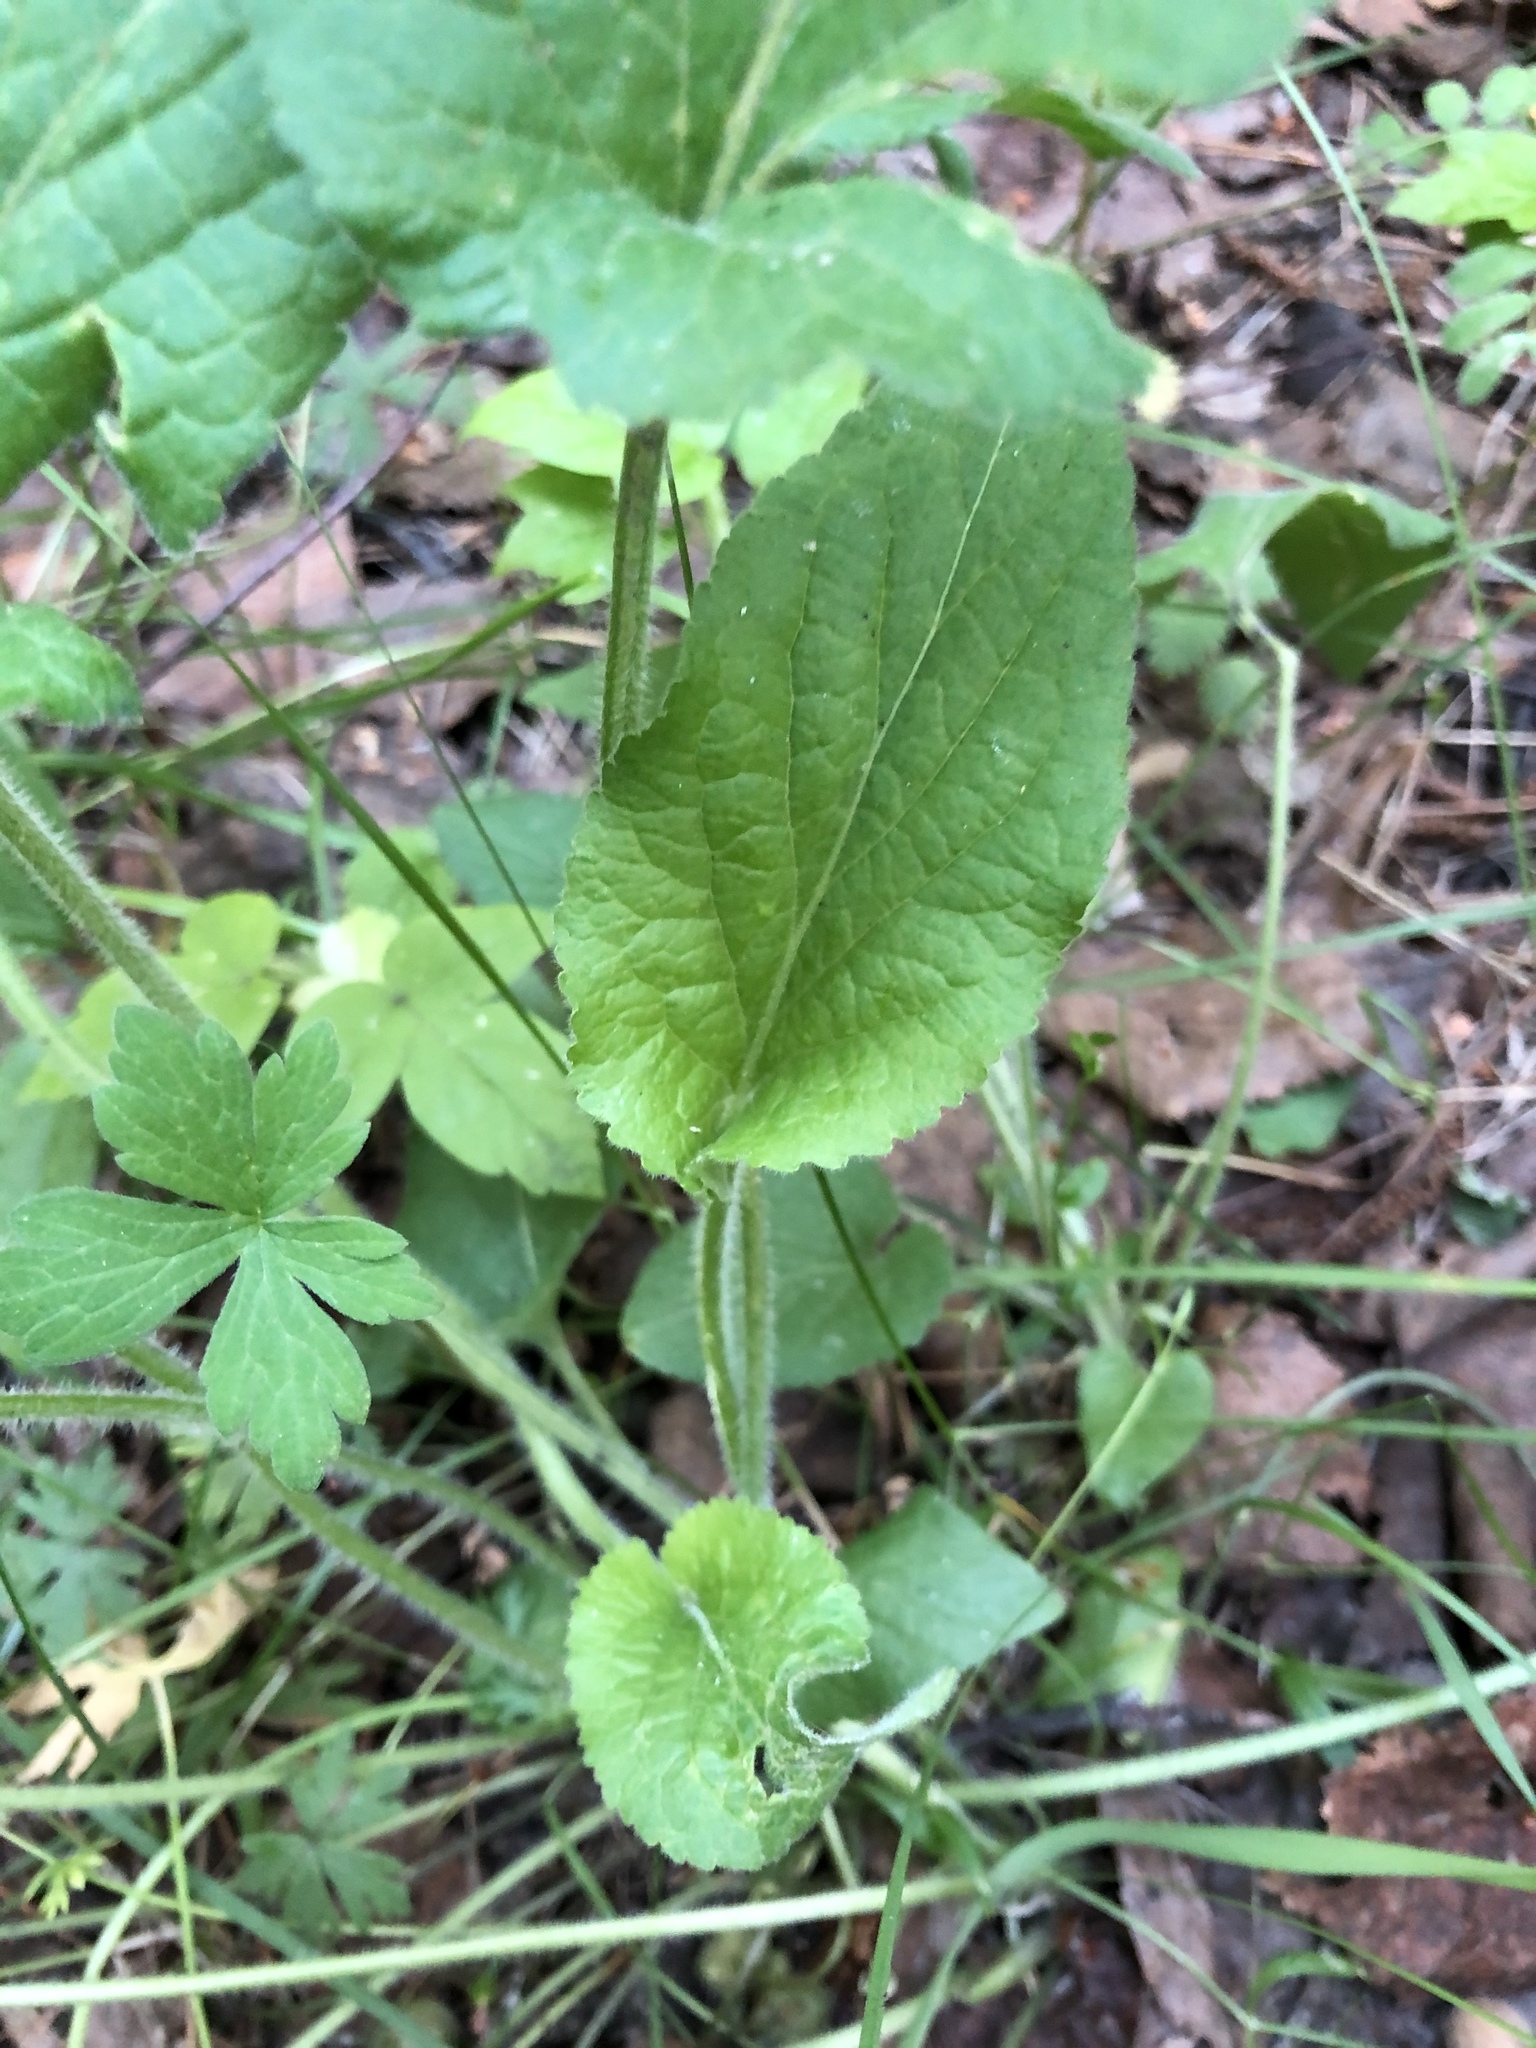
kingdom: Plantae
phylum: Tracheophyta
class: Magnoliopsida
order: Malpighiales
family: Violaceae
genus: Viola
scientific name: Viola hirta
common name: Hairy violet
